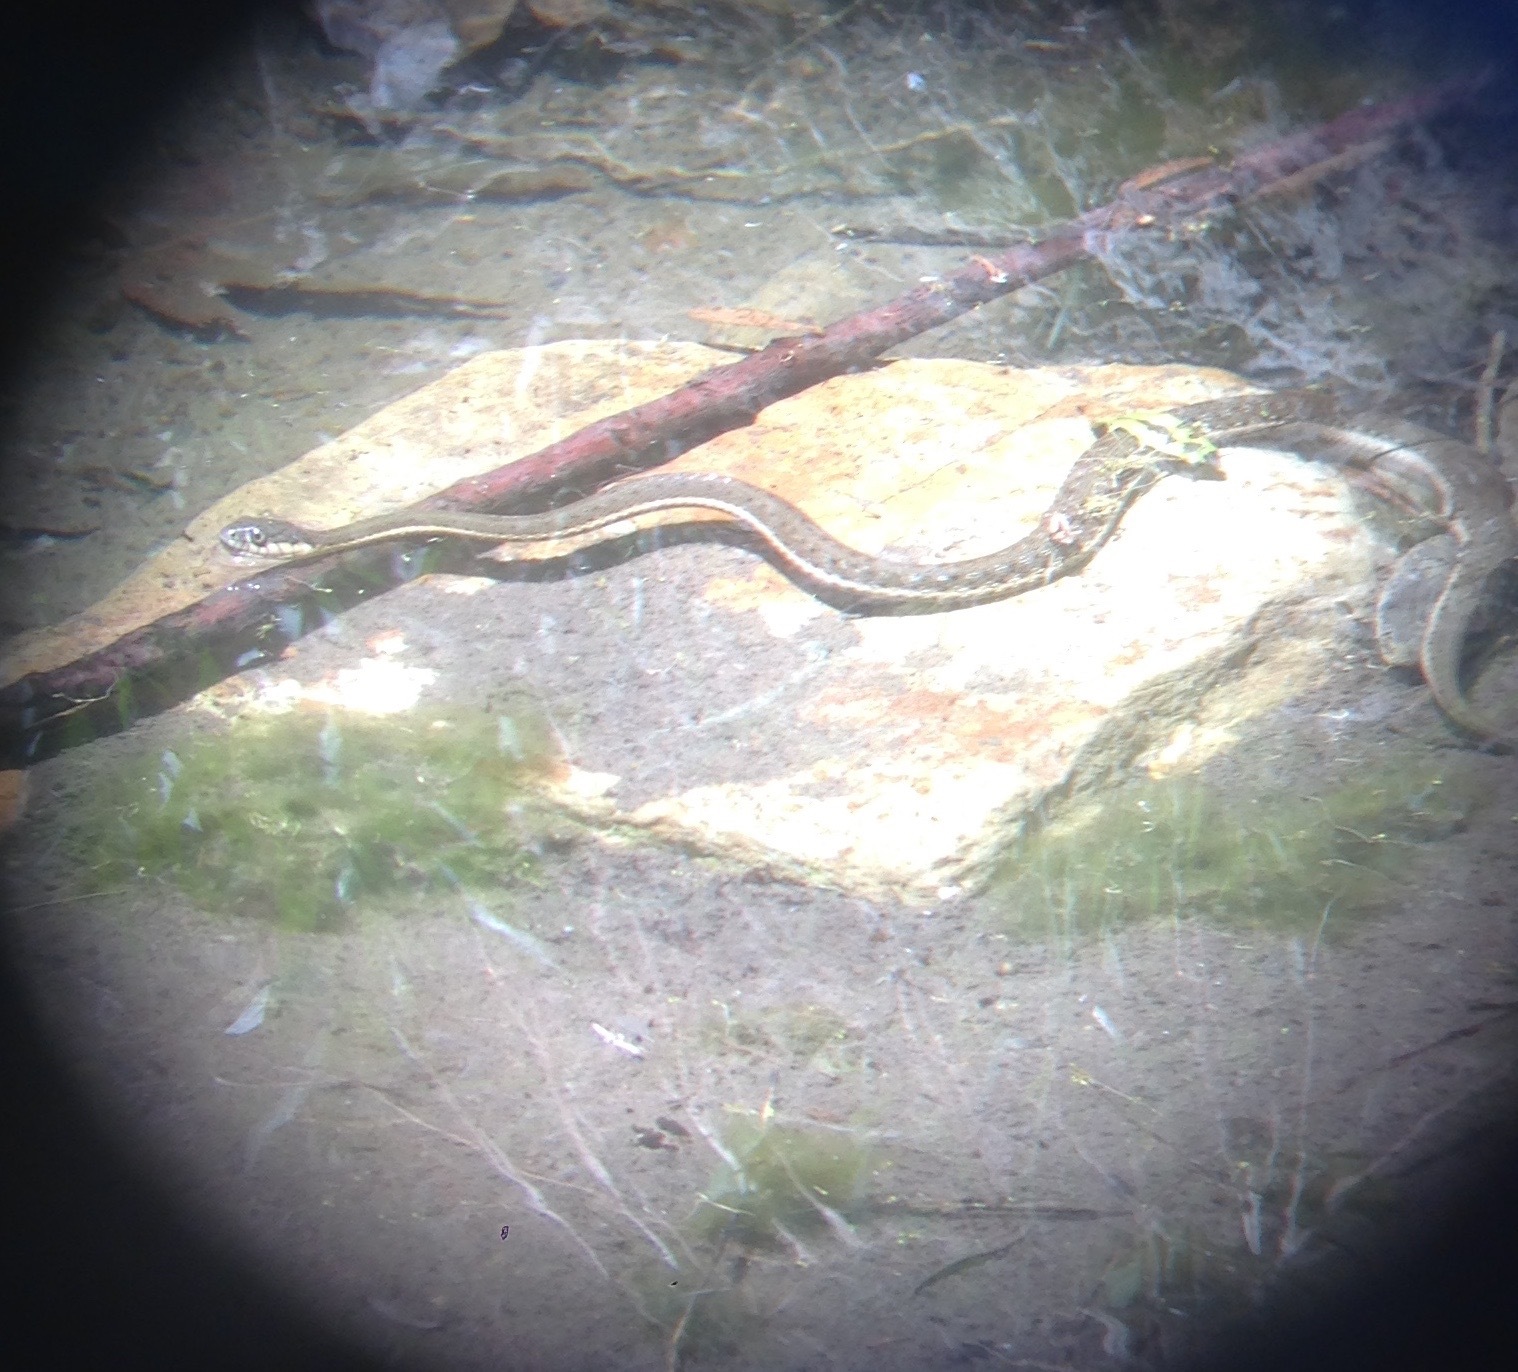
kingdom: Animalia
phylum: Chordata
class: Squamata
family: Colubridae
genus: Thamnophis
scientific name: Thamnophis hammondii
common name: Two-striped garter snake
